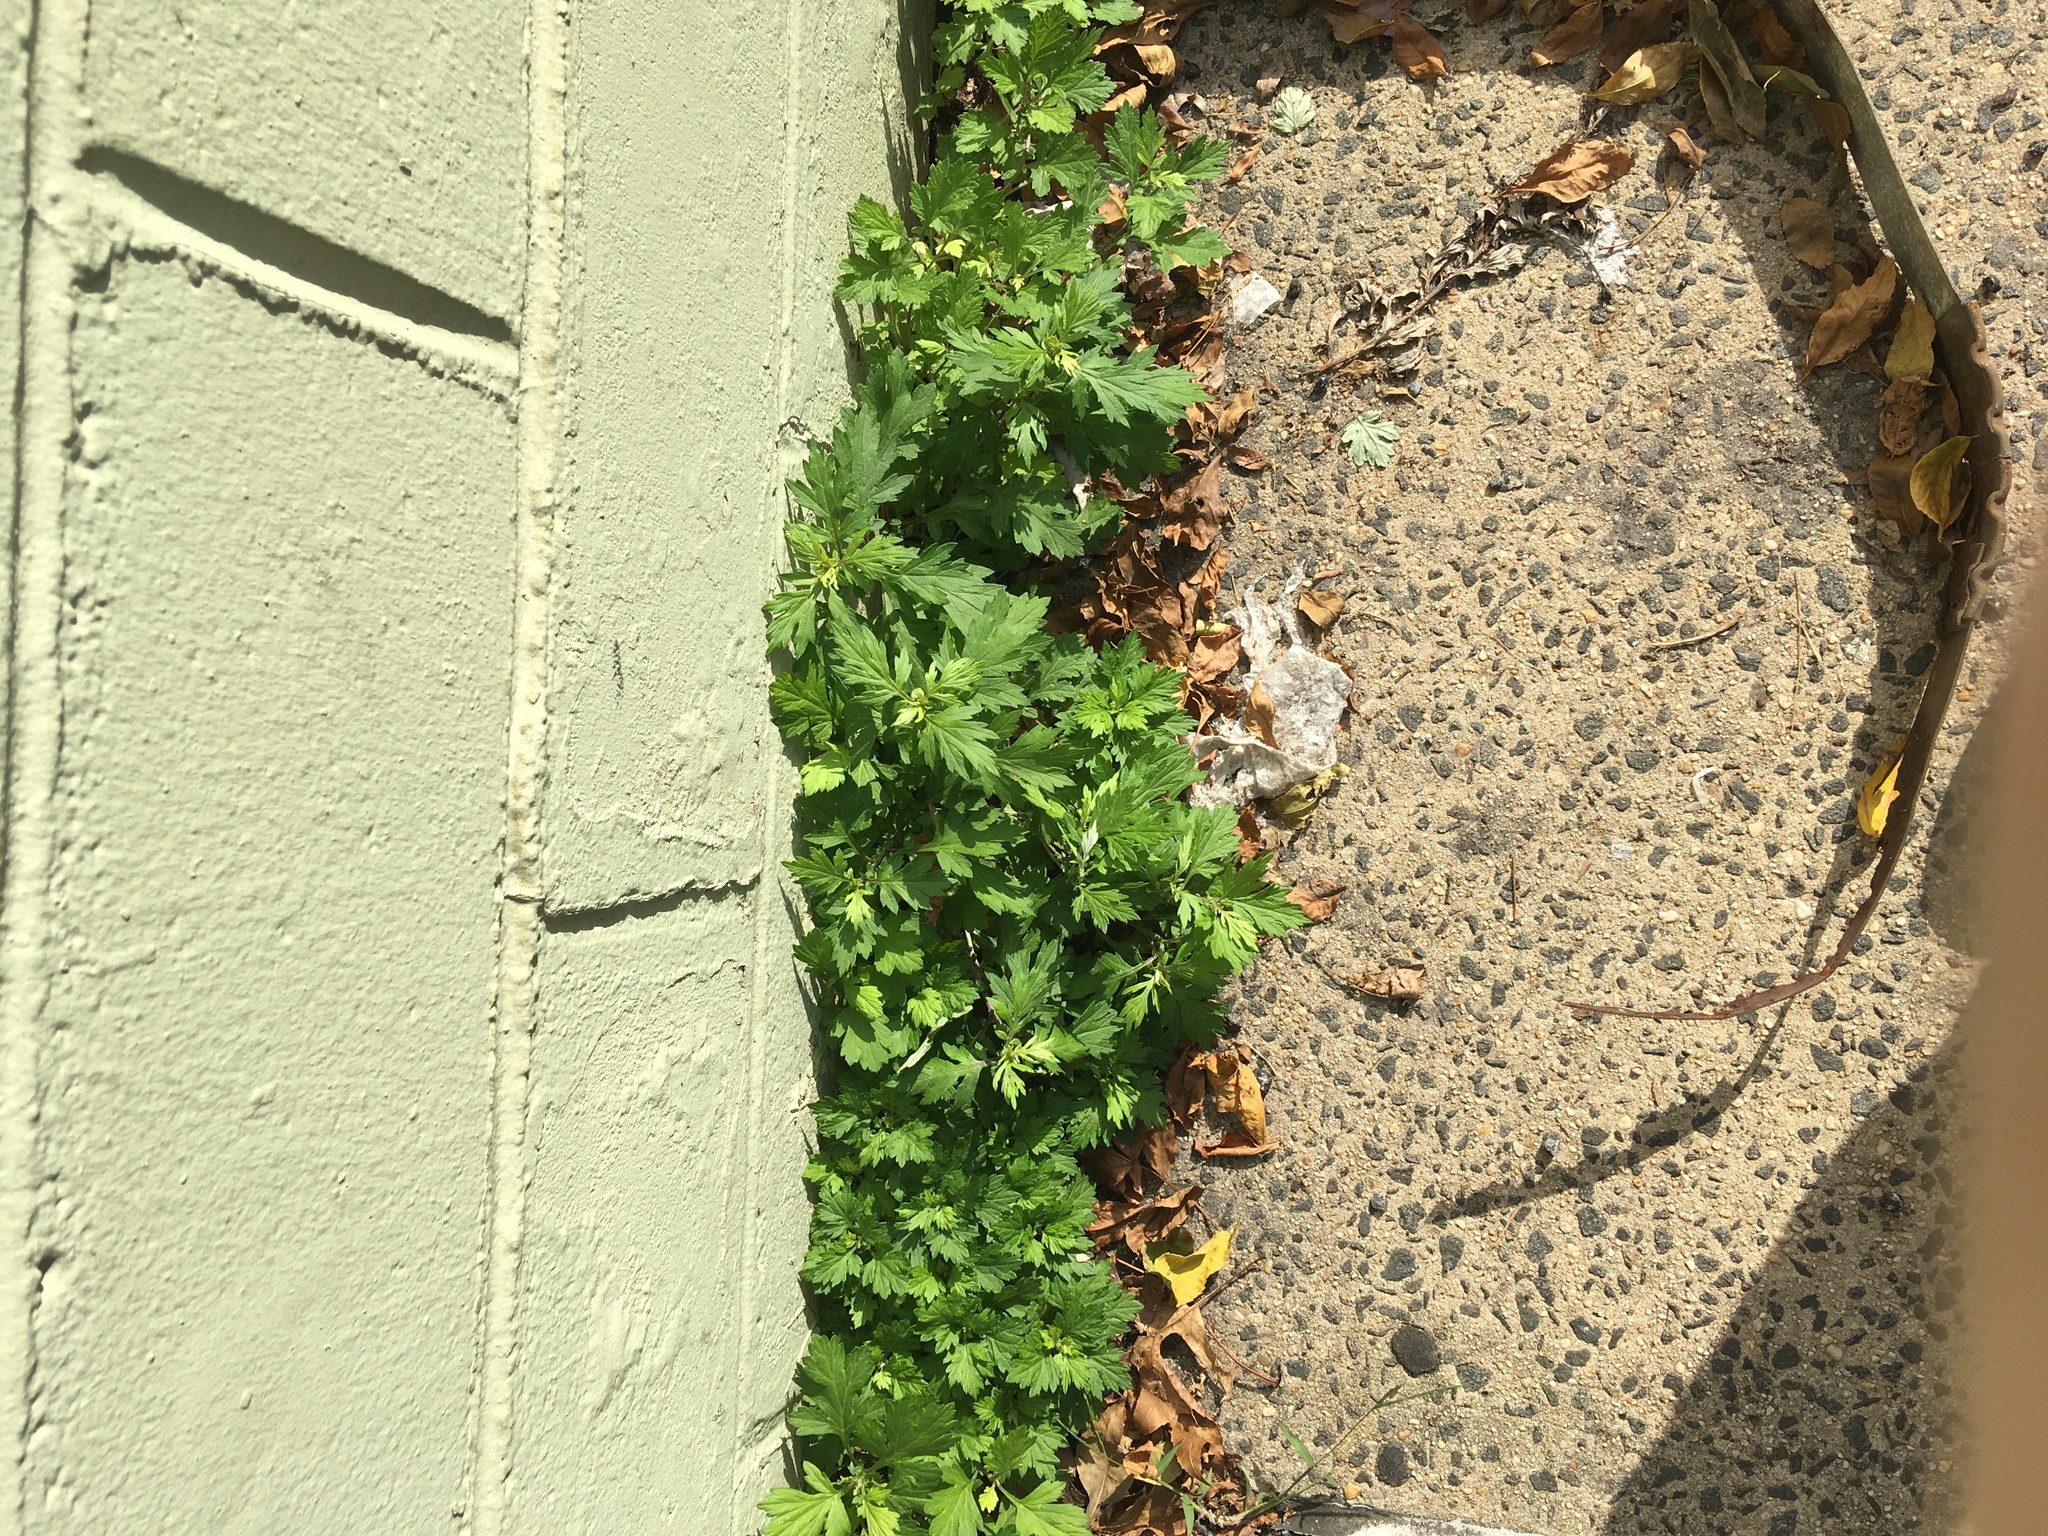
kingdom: Plantae
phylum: Tracheophyta
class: Magnoliopsida
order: Asterales
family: Asteraceae
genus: Artemisia
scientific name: Artemisia vulgaris
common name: Mugwort
